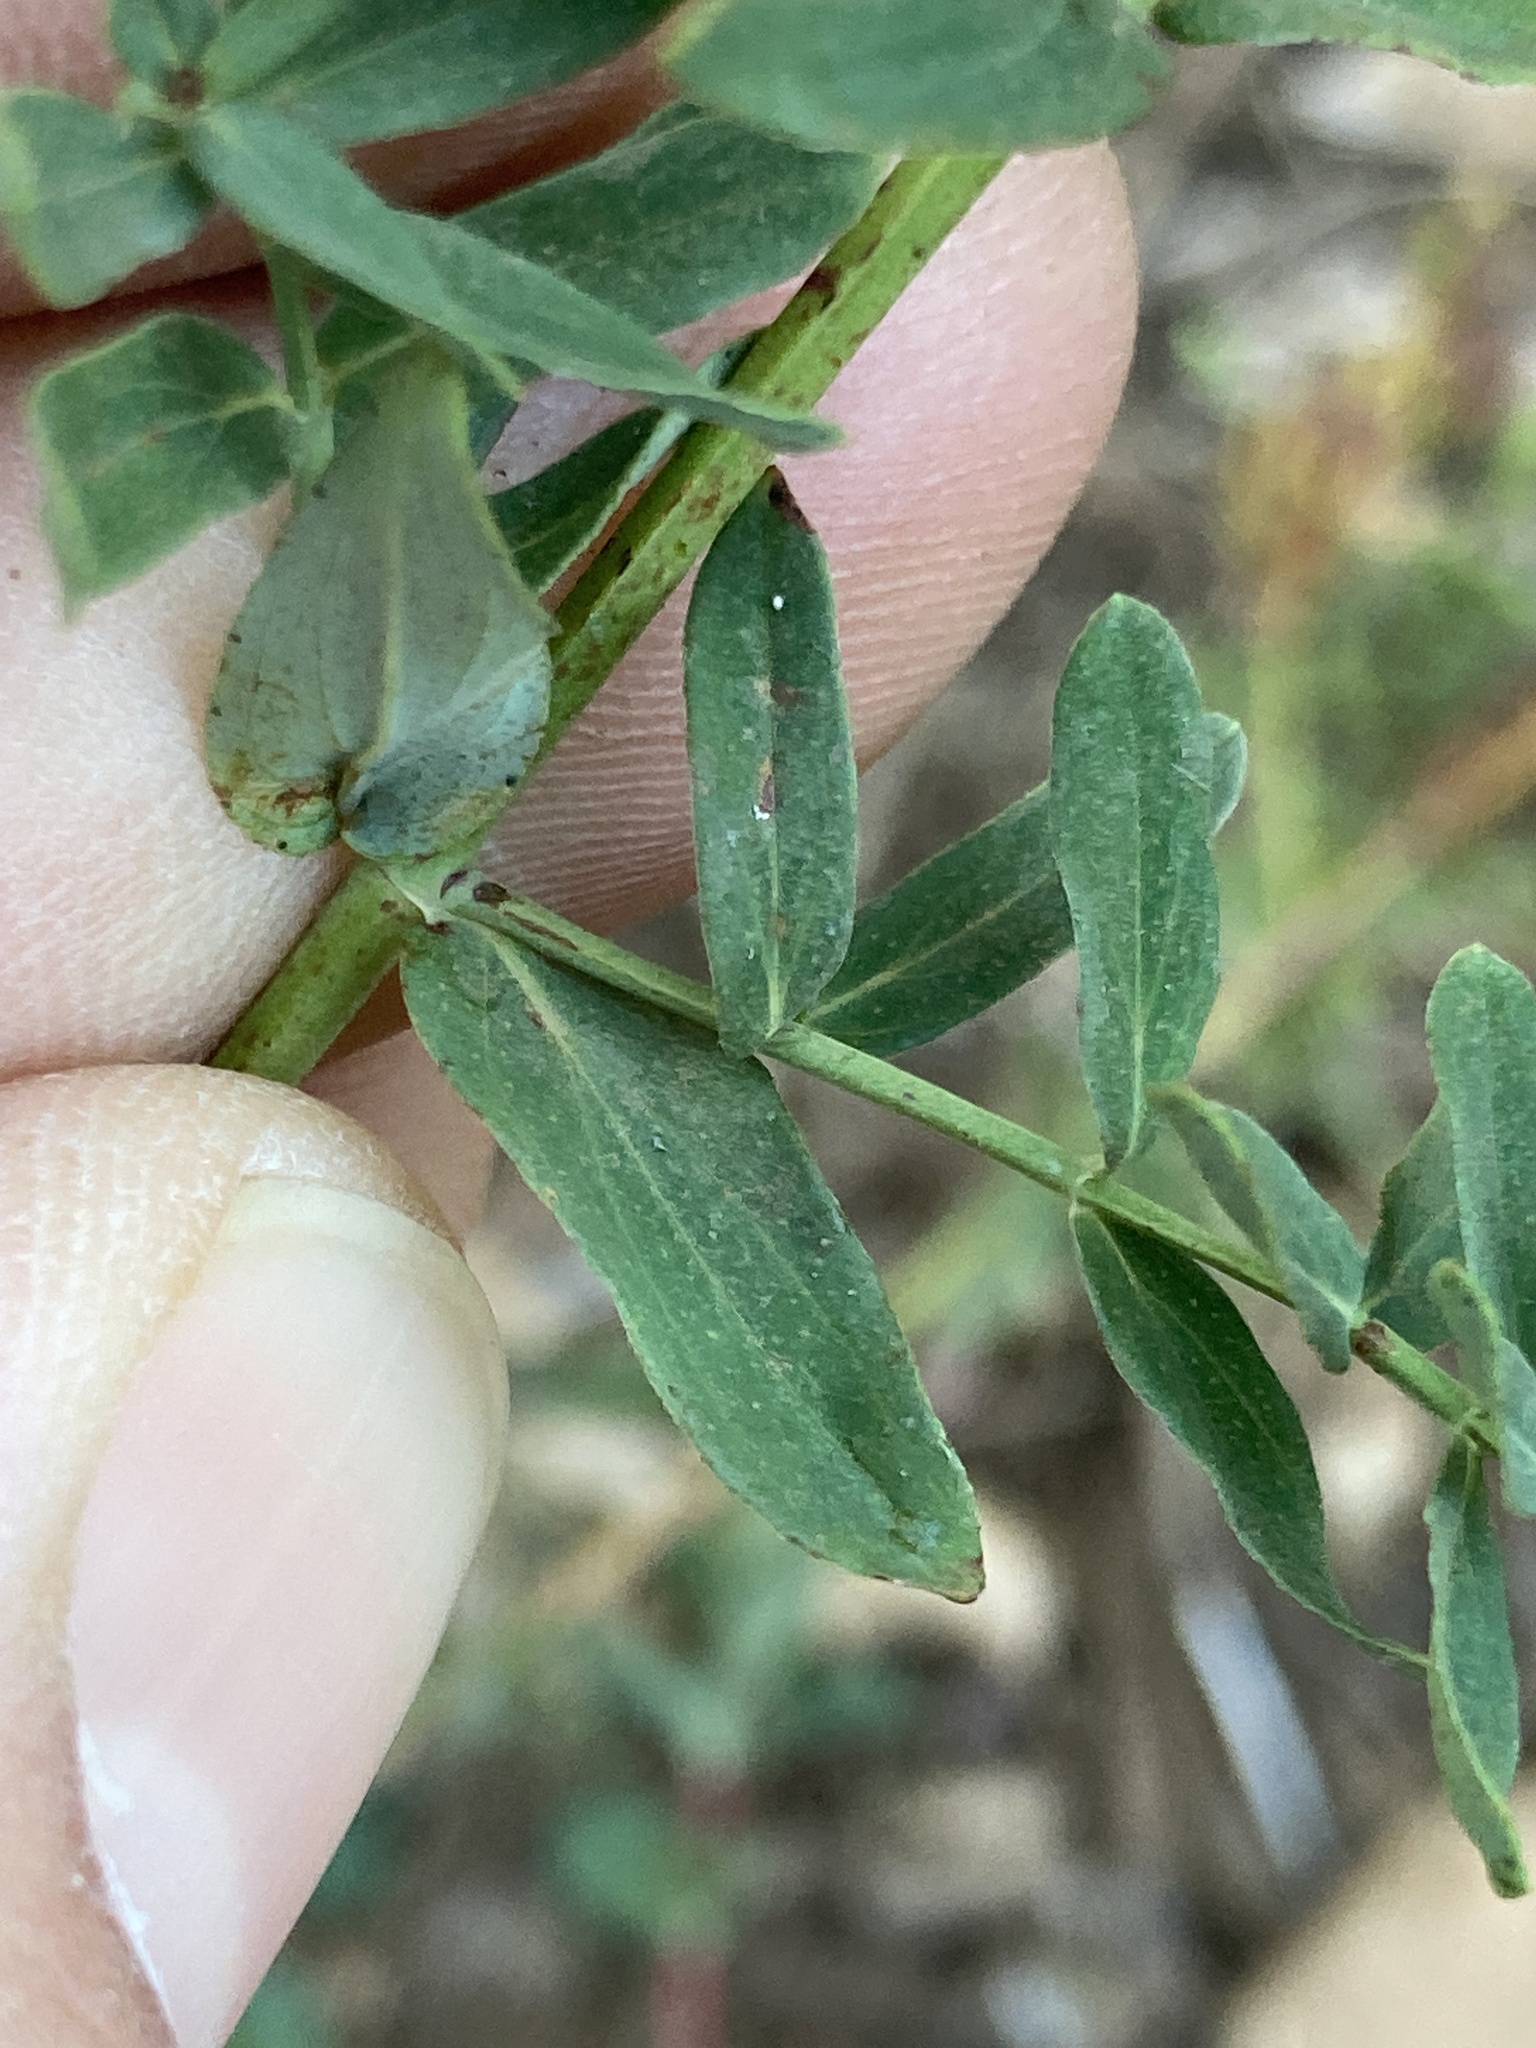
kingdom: Plantae
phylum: Tracheophyta
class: Magnoliopsida
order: Malpighiales
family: Hypericaceae
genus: Hypericum
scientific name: Hypericum perforatum
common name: Common st. johnswort
